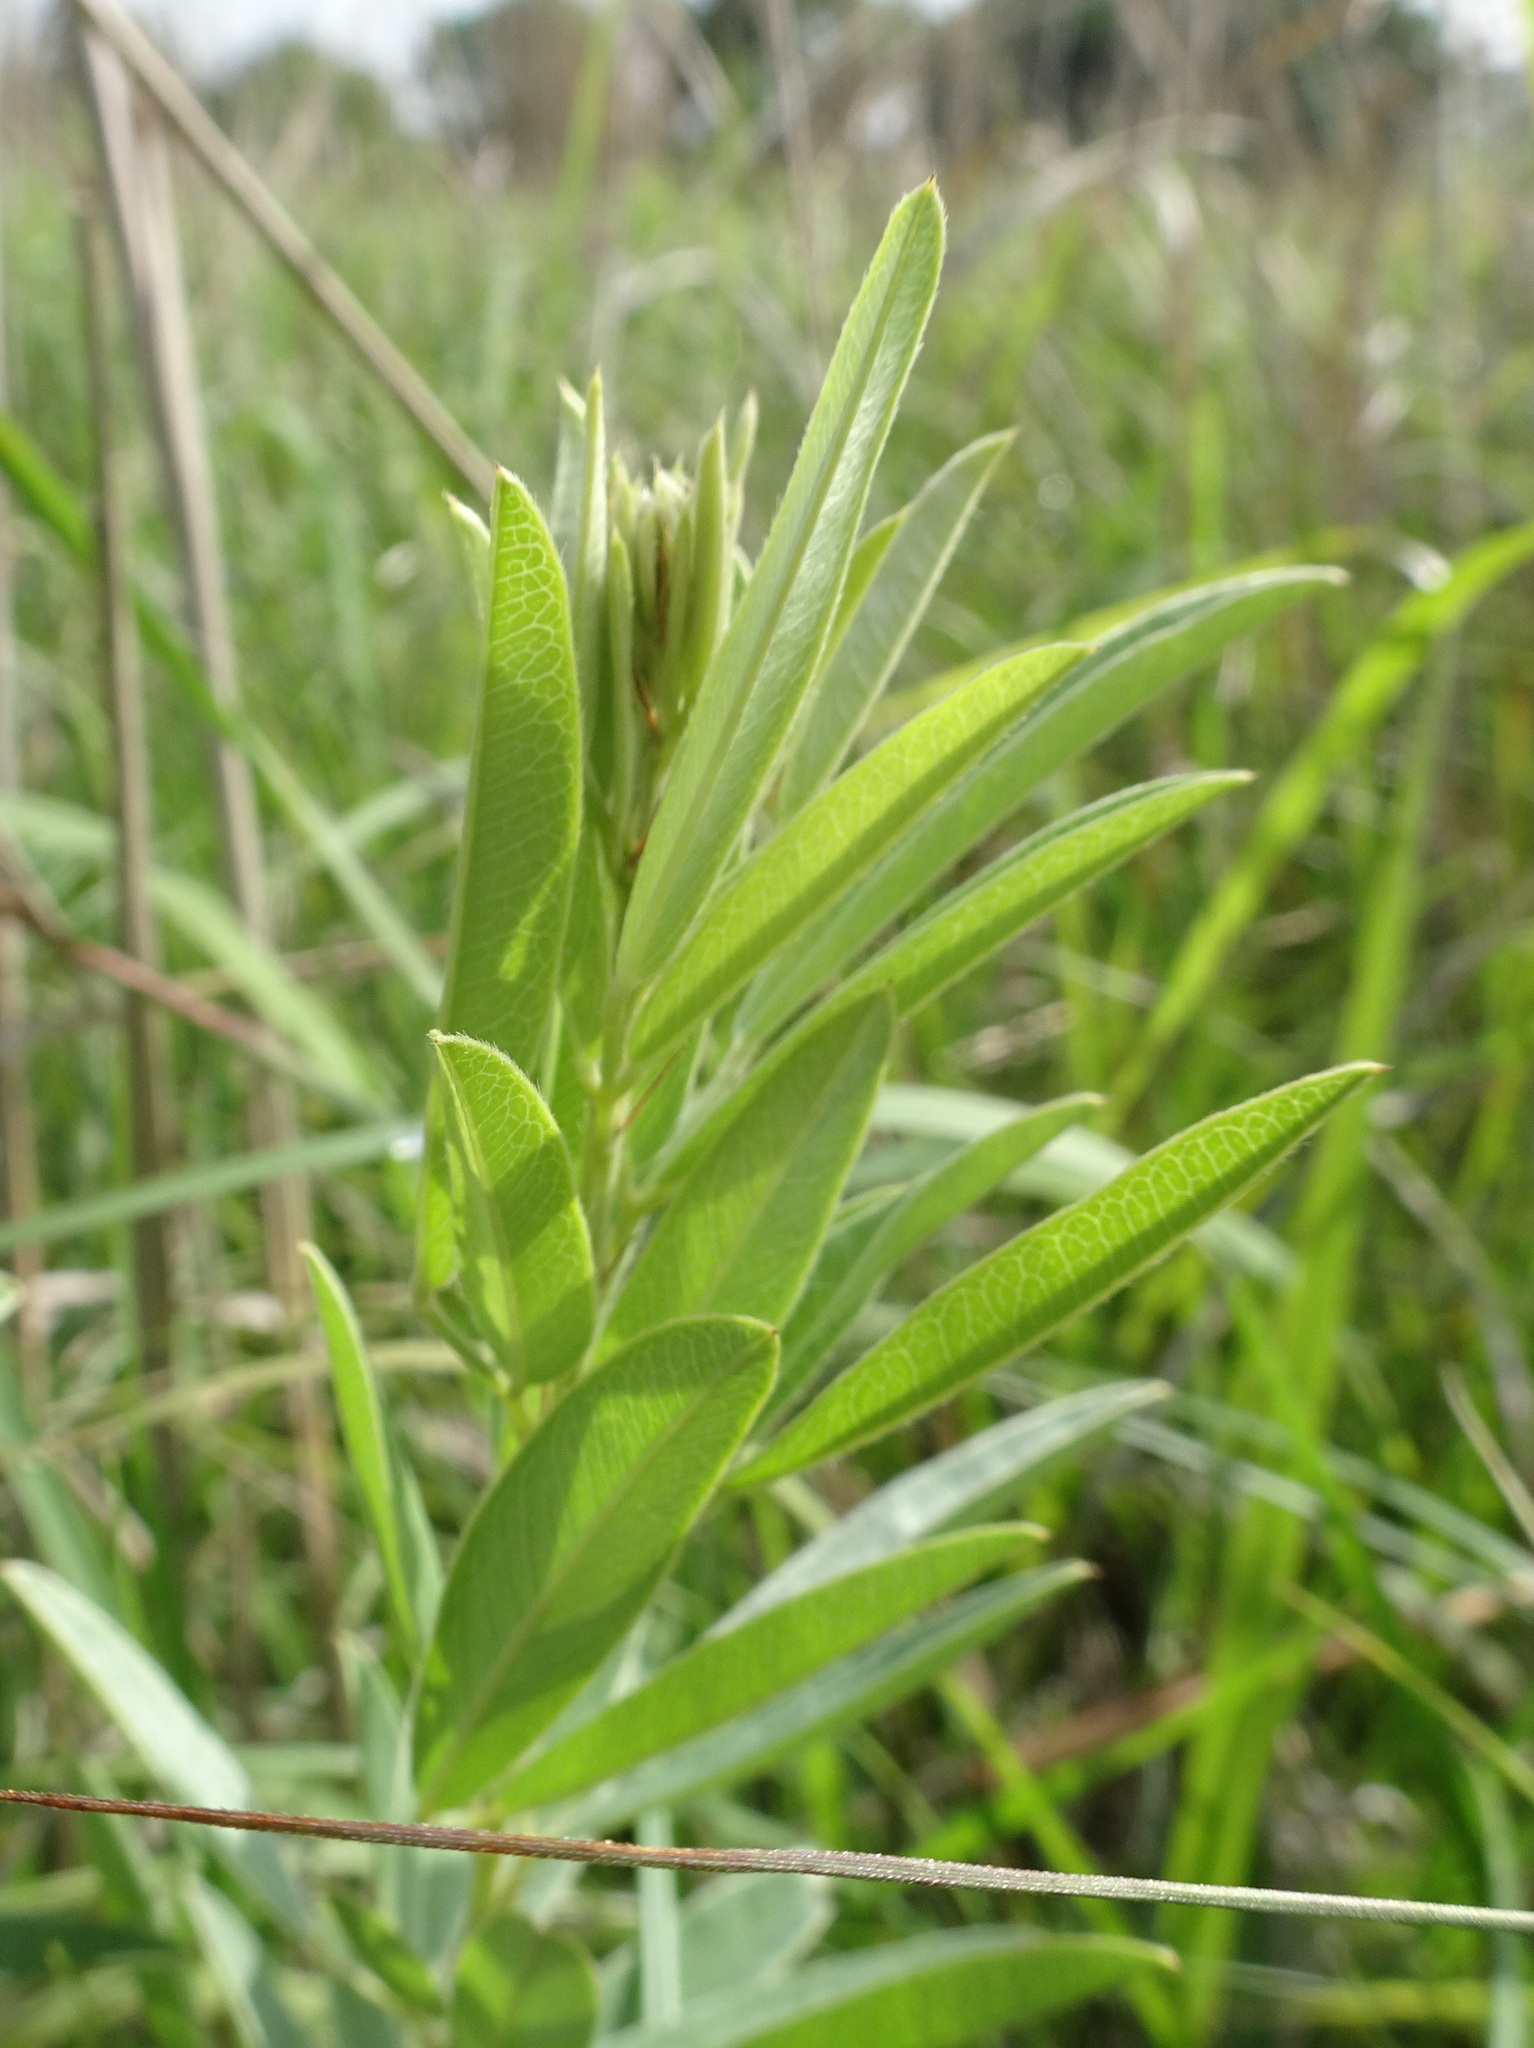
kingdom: Plantae
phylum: Tracheophyta
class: Magnoliopsida
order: Fabales
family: Fabaceae
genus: Lespedeza
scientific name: Lespedeza capitata
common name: Dusty clover
